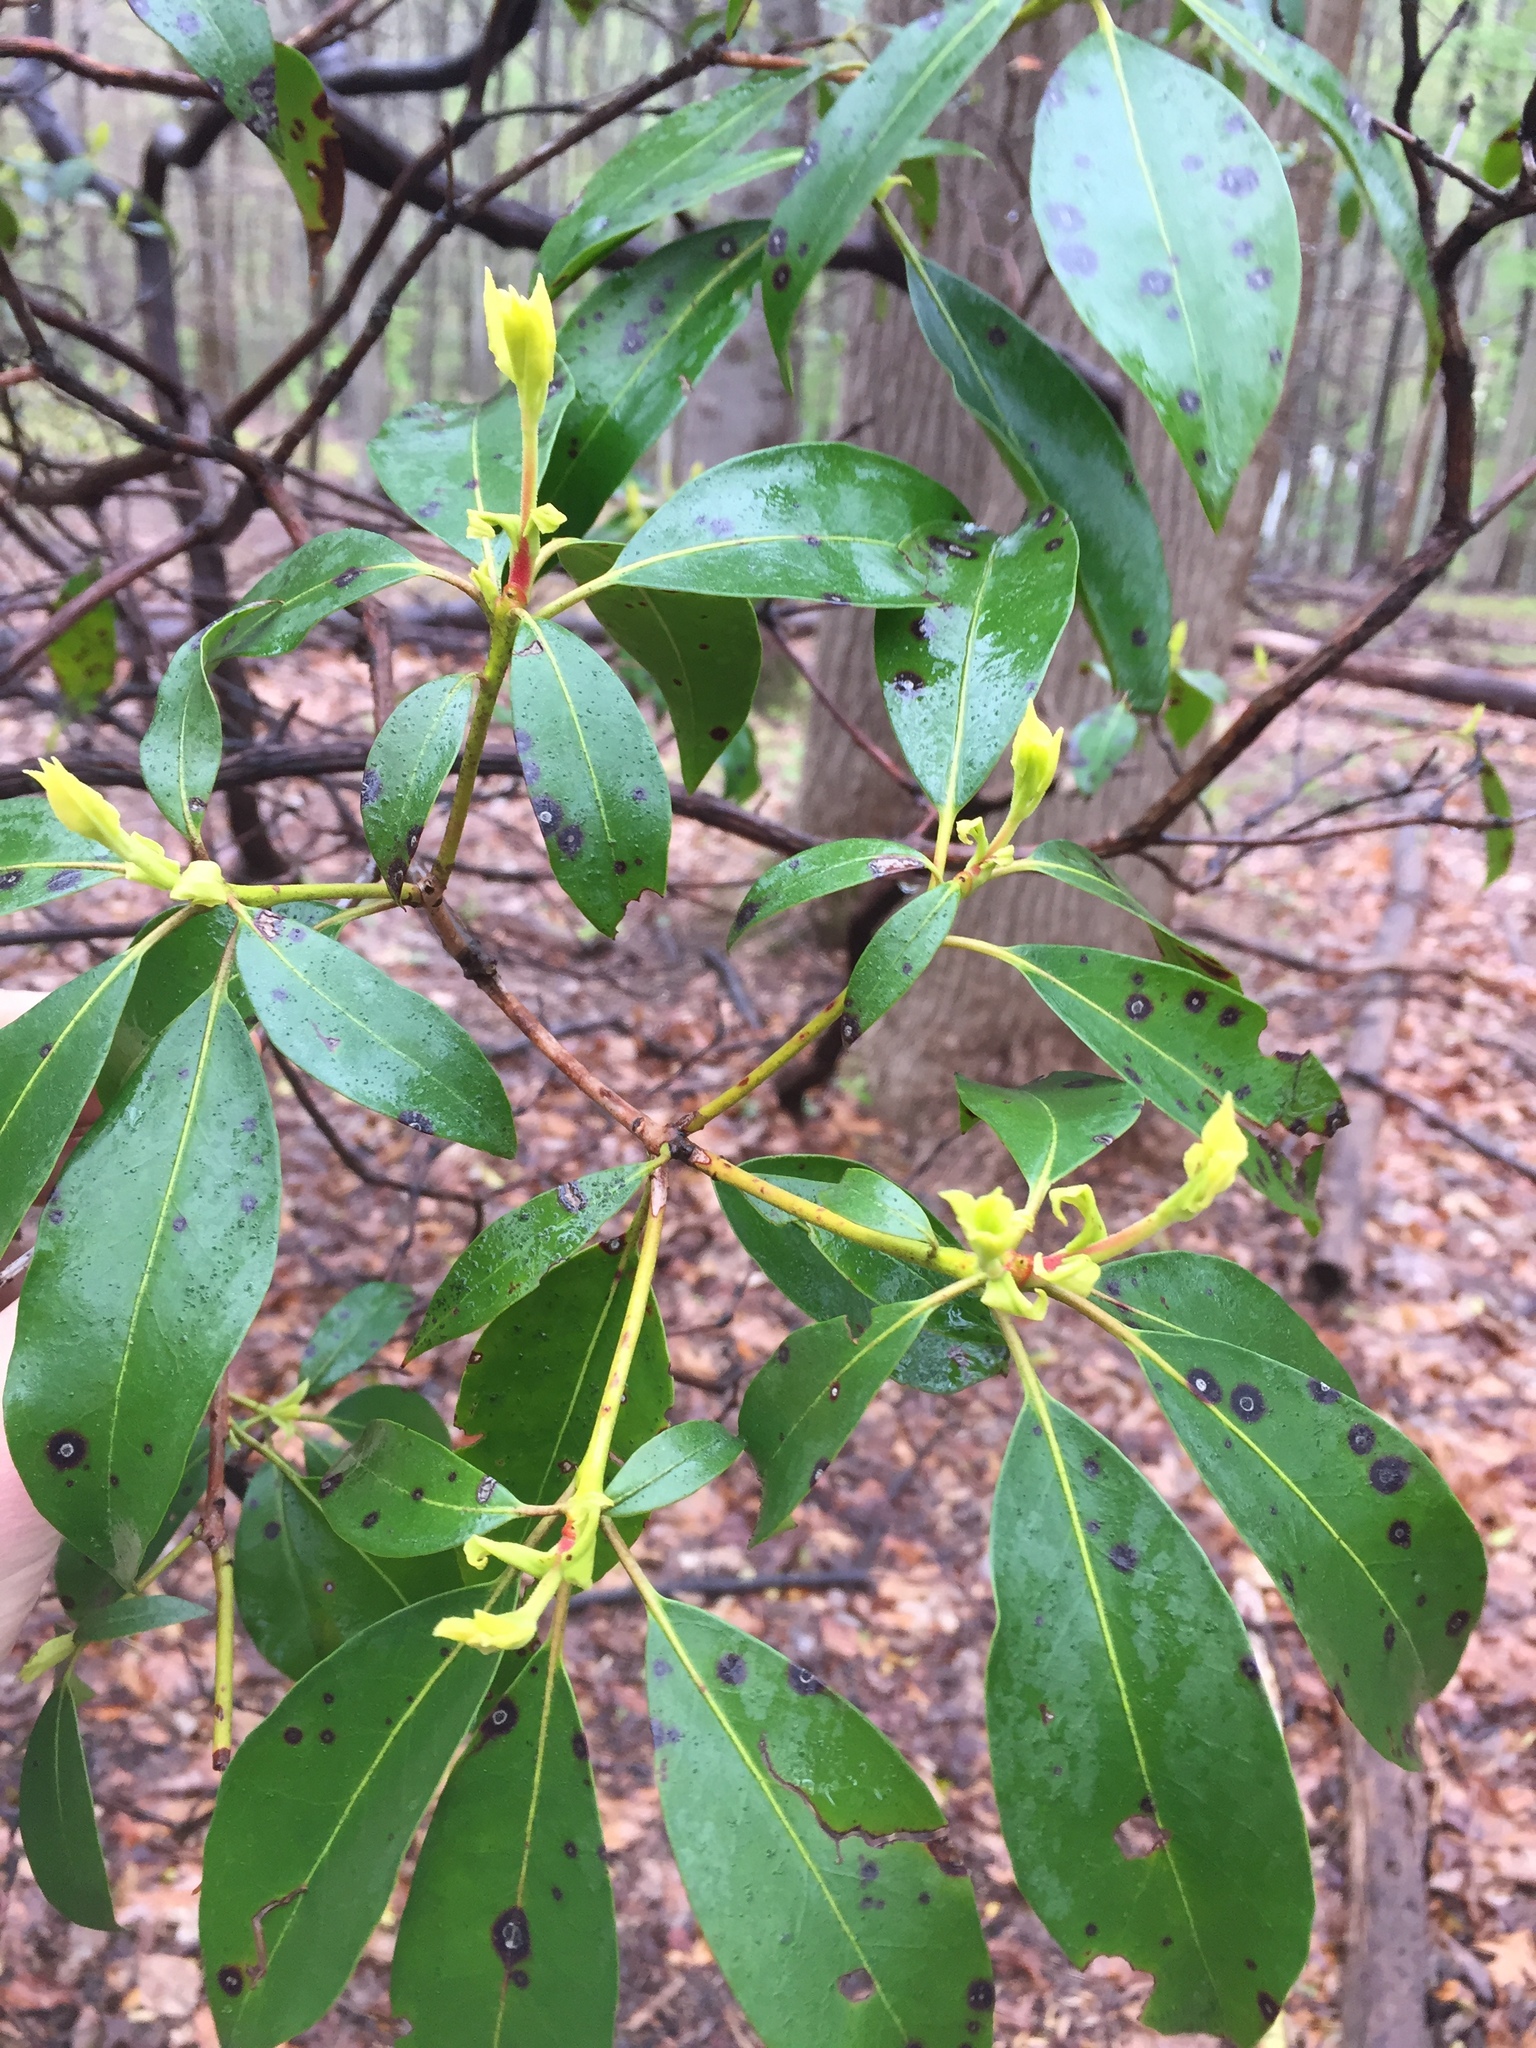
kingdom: Plantae
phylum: Tracheophyta
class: Magnoliopsida
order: Ericales
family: Ericaceae
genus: Kalmia
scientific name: Kalmia latifolia
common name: Mountain-laurel
